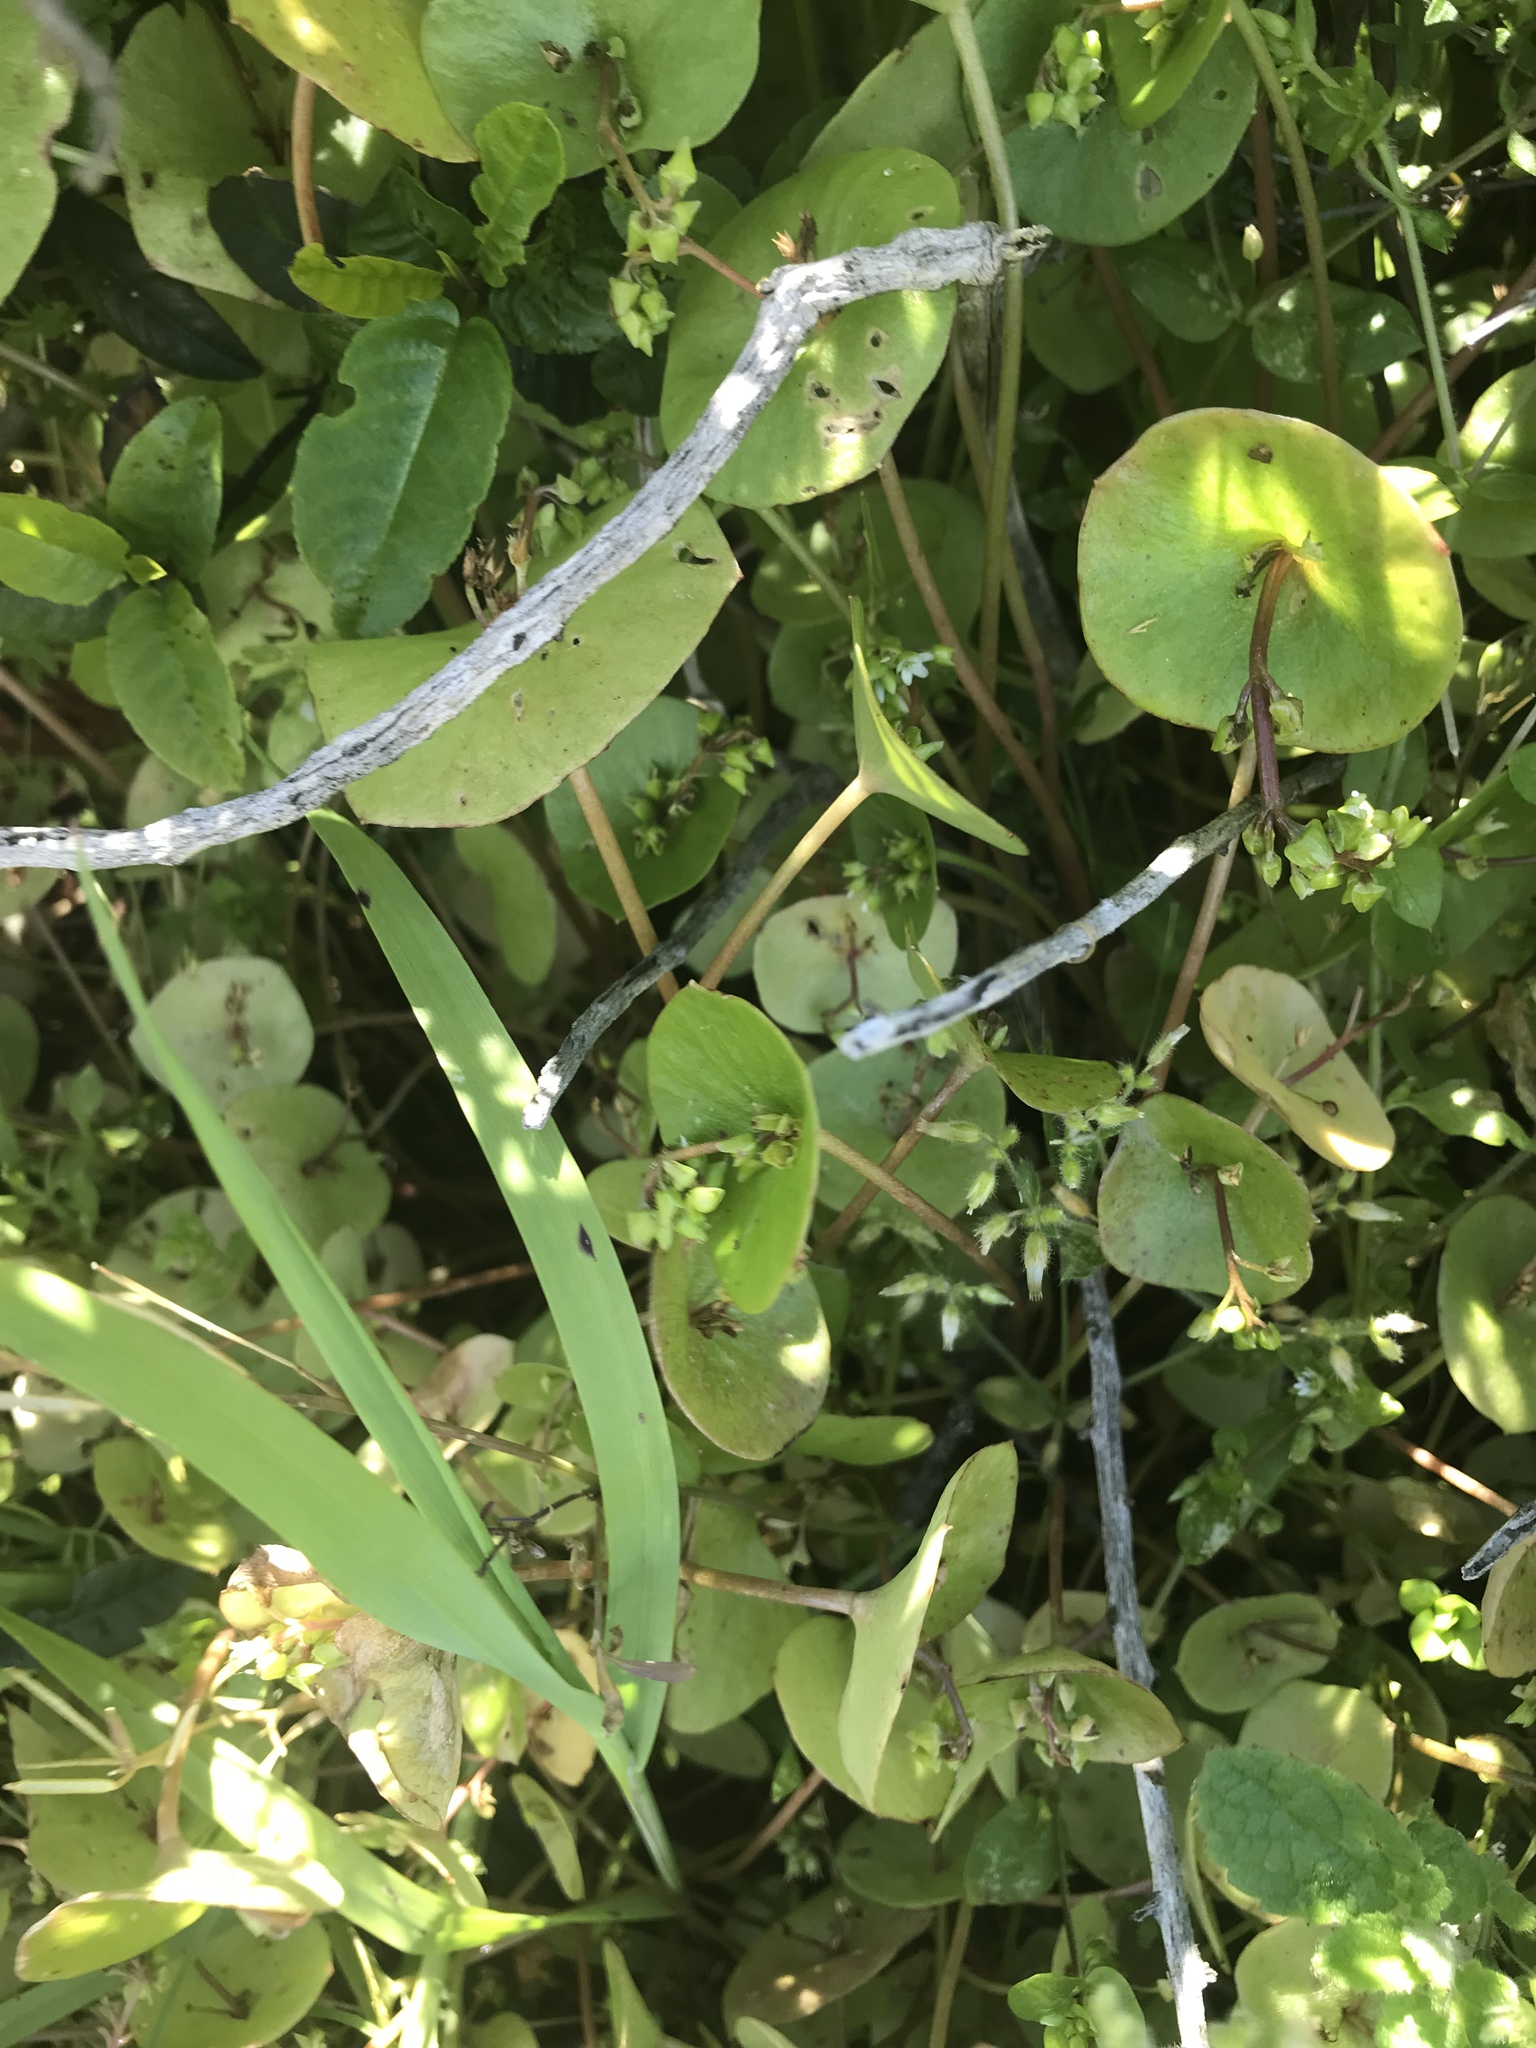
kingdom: Plantae
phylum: Tracheophyta
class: Magnoliopsida
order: Caryophyllales
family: Montiaceae
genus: Claytonia
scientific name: Claytonia perfoliata
